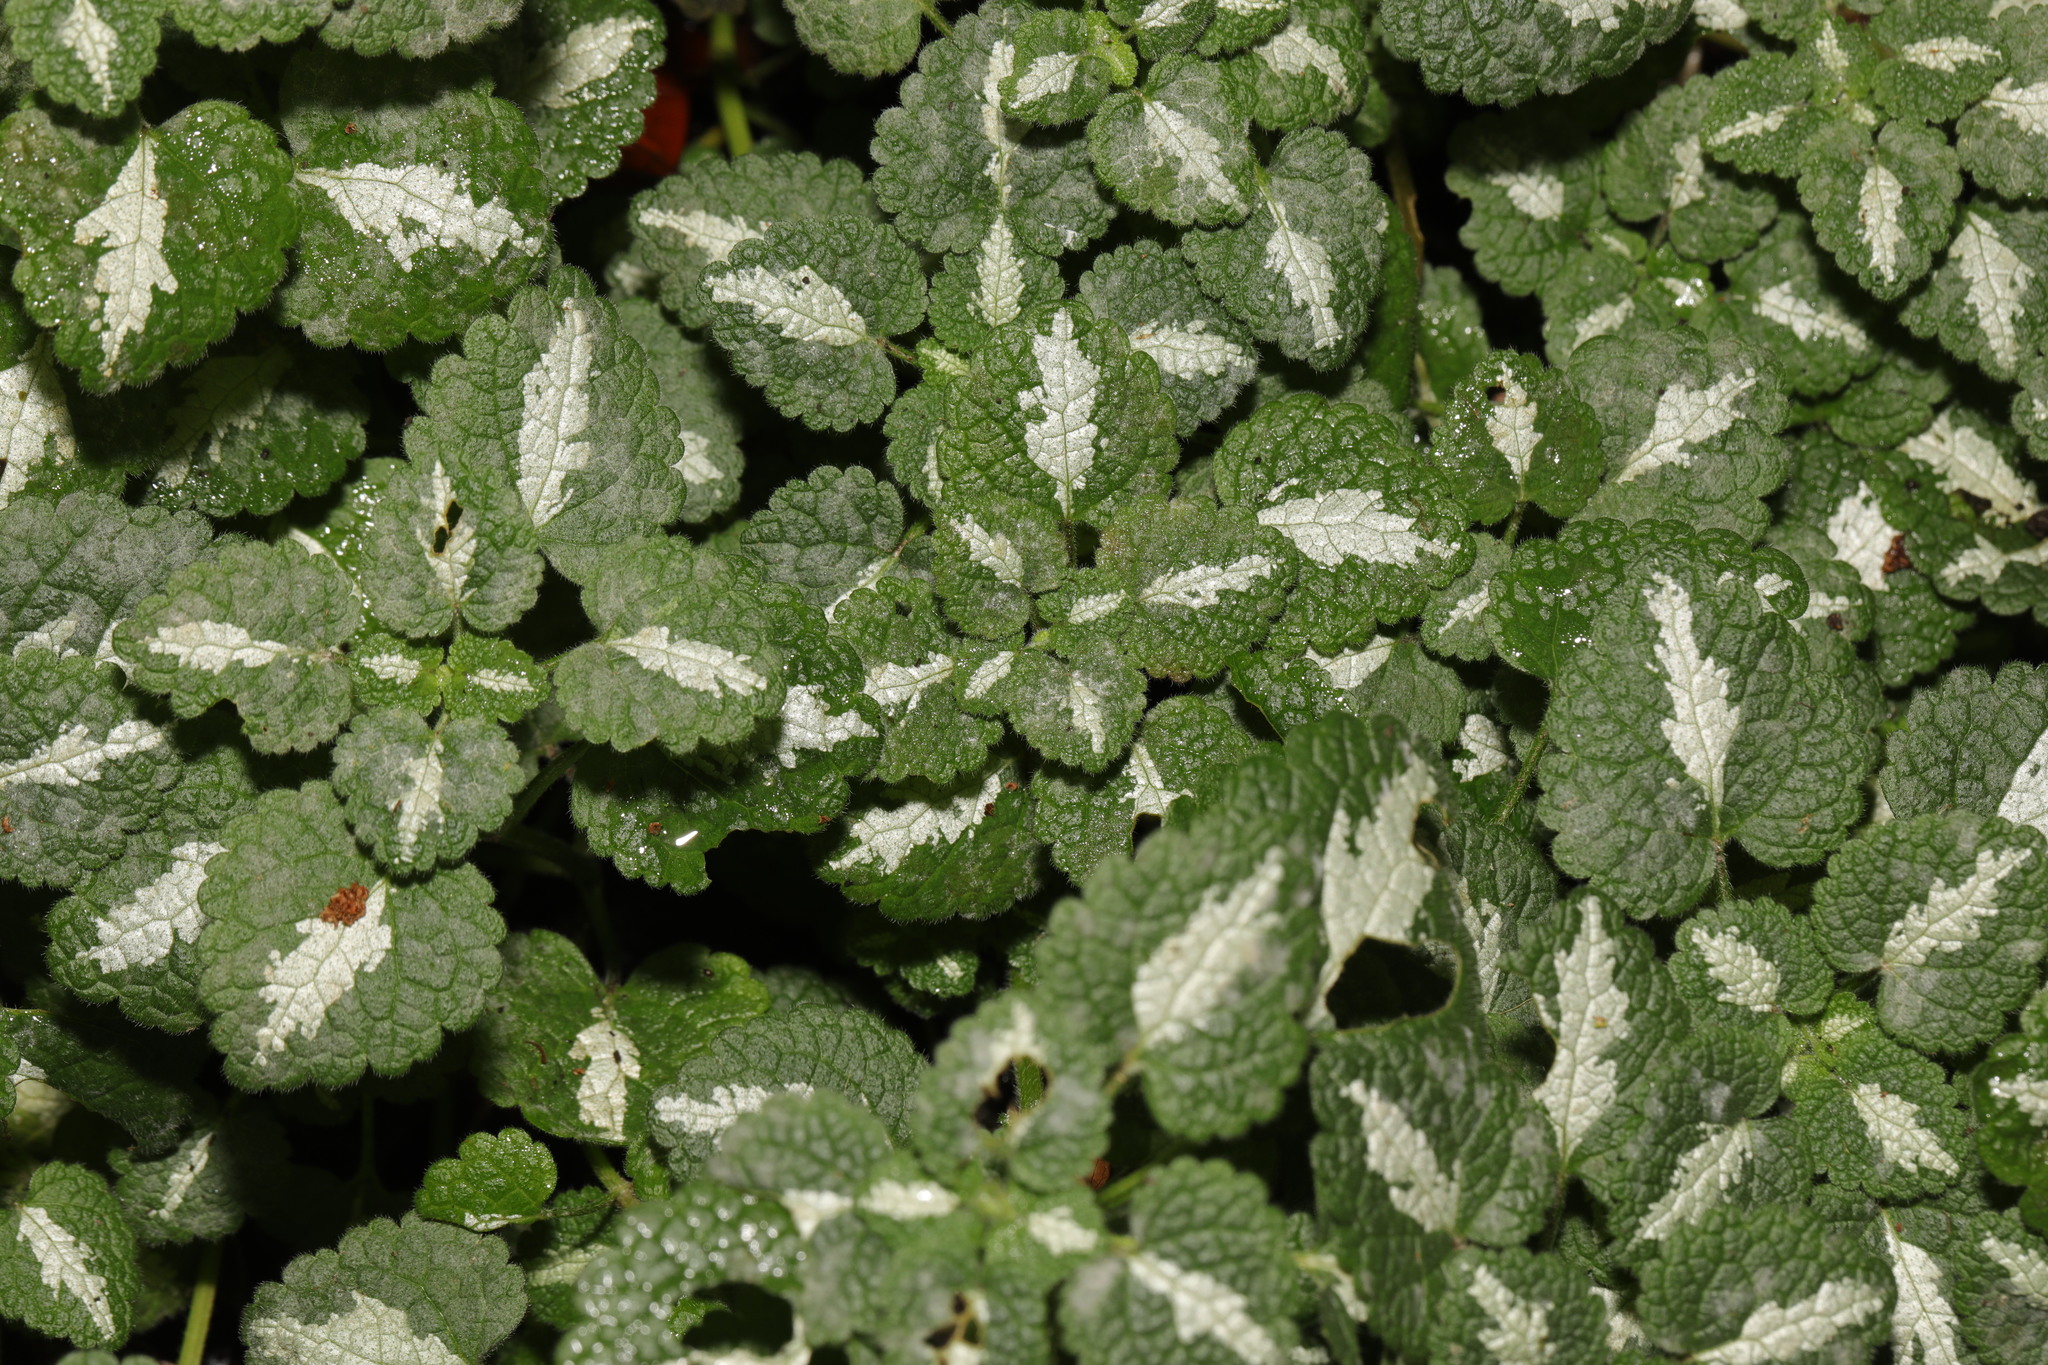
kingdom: Plantae
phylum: Tracheophyta
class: Magnoliopsida
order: Lamiales
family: Lamiaceae
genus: Lamium
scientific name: Lamium maculatum
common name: Spotted dead-nettle
